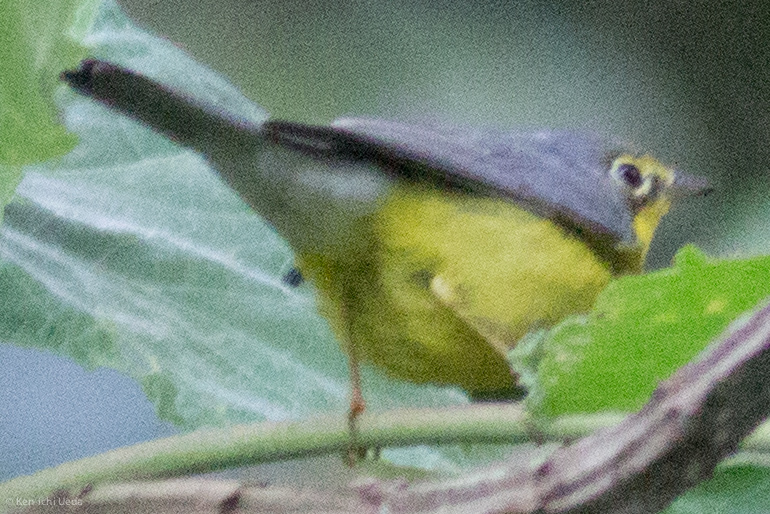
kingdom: Animalia
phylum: Chordata
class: Aves
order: Passeriformes
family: Parulidae
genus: Cardellina
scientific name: Cardellina canadensis
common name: Canada warbler
